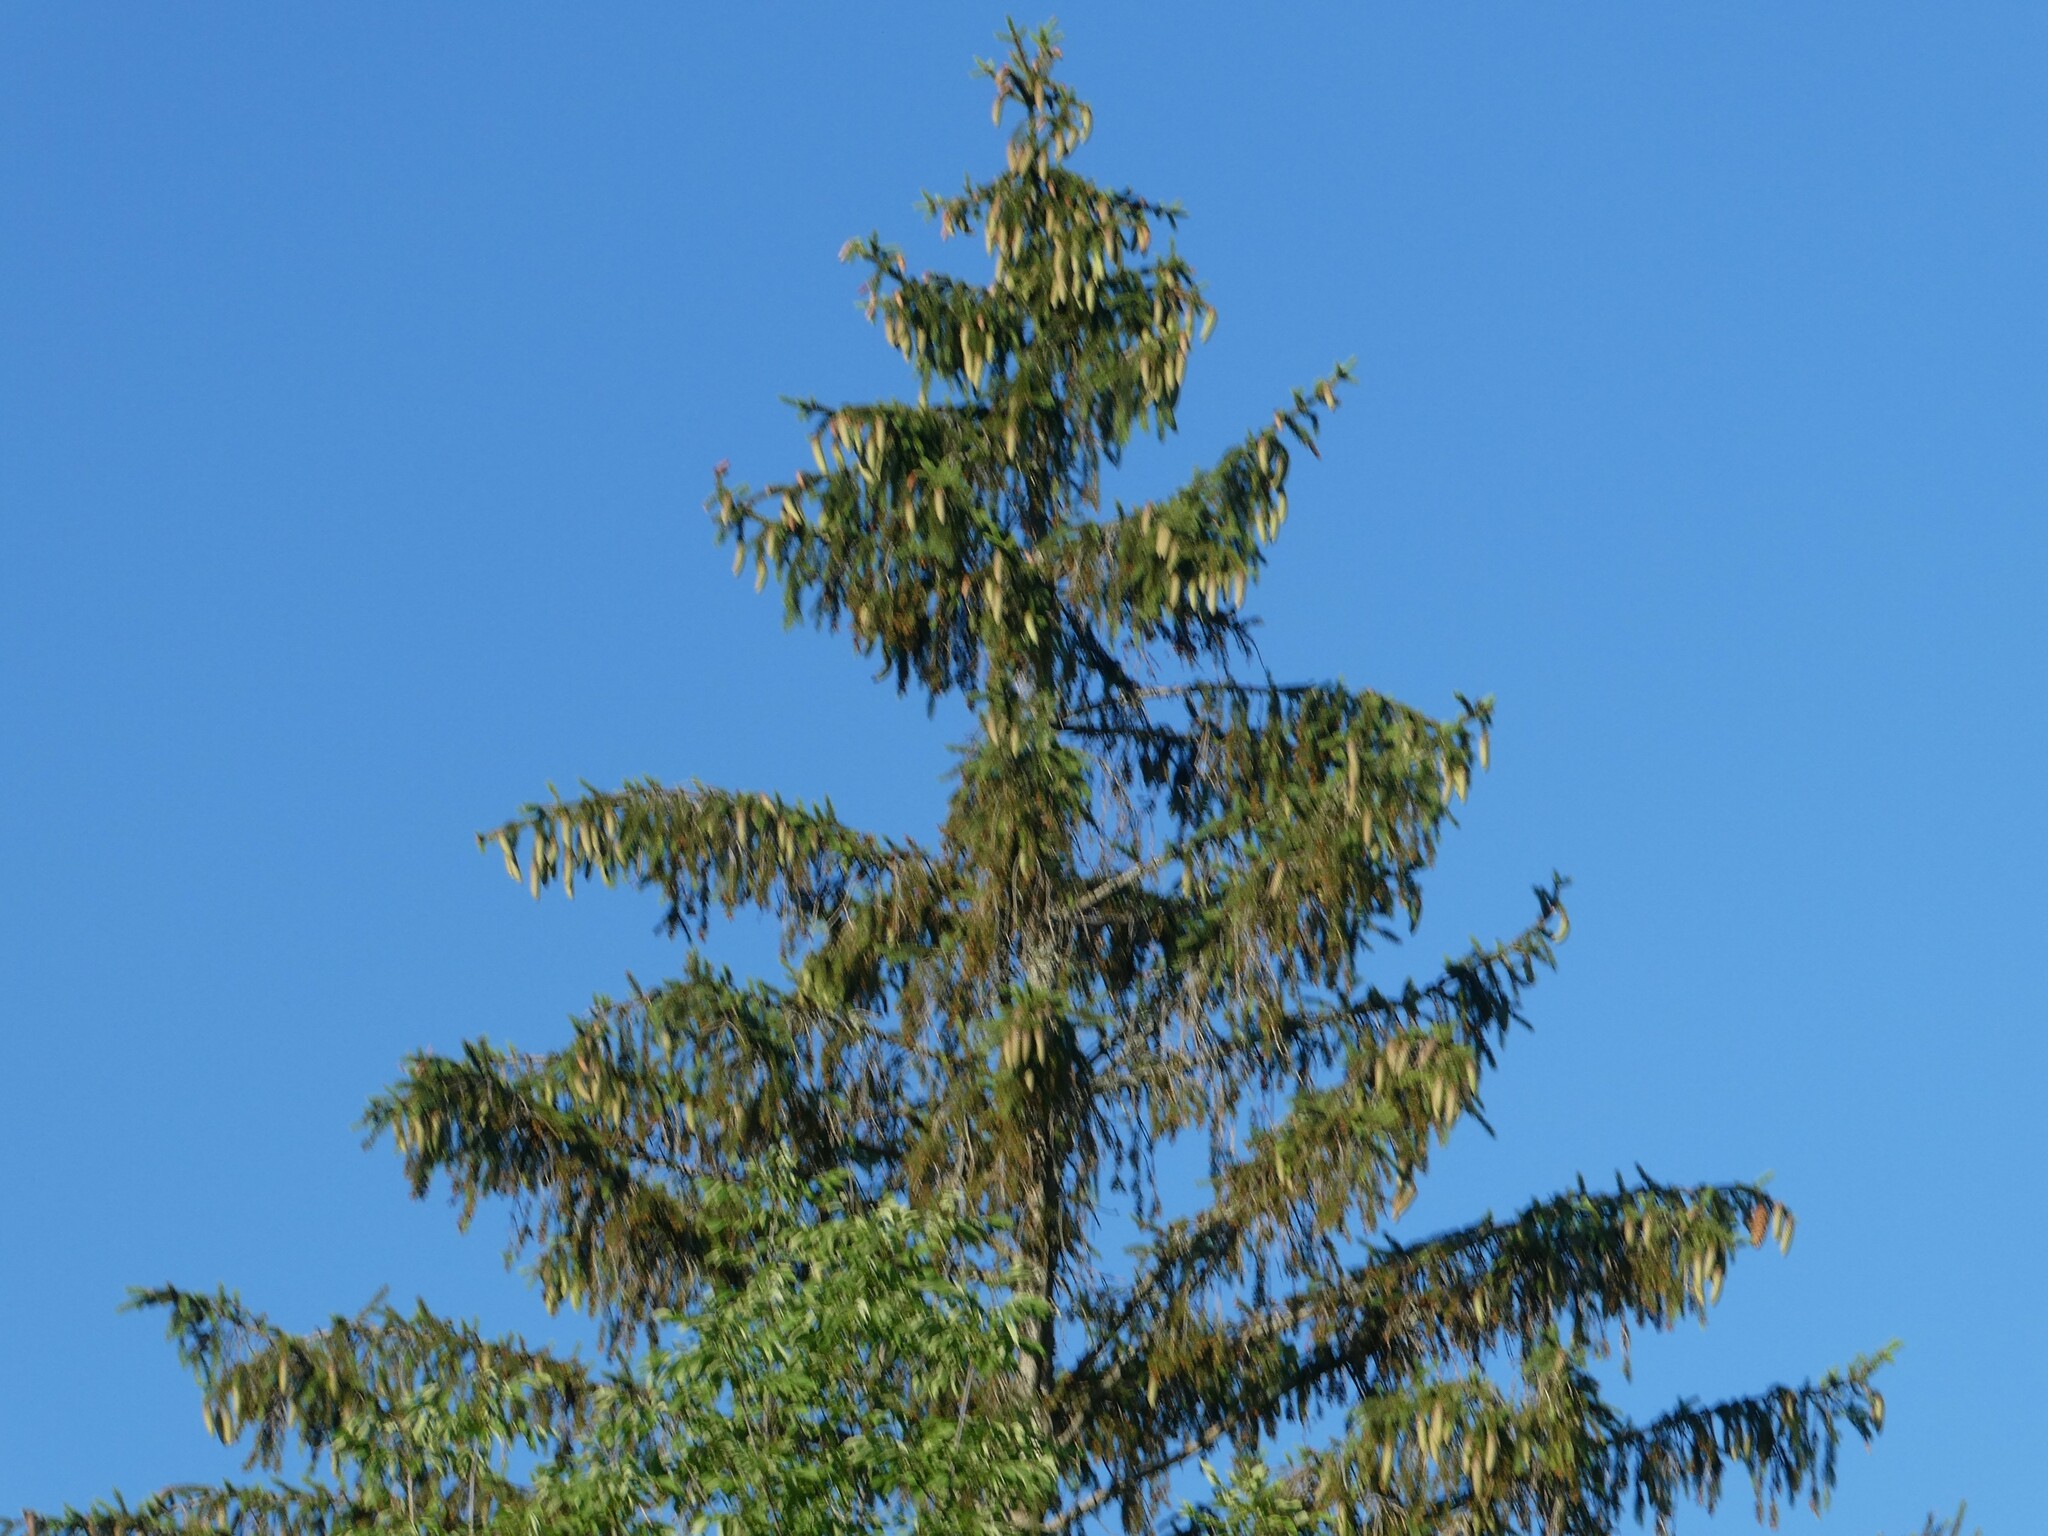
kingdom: Plantae
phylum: Tracheophyta
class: Pinopsida
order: Pinales
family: Pinaceae
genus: Picea
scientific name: Picea abies
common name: Norway spruce
